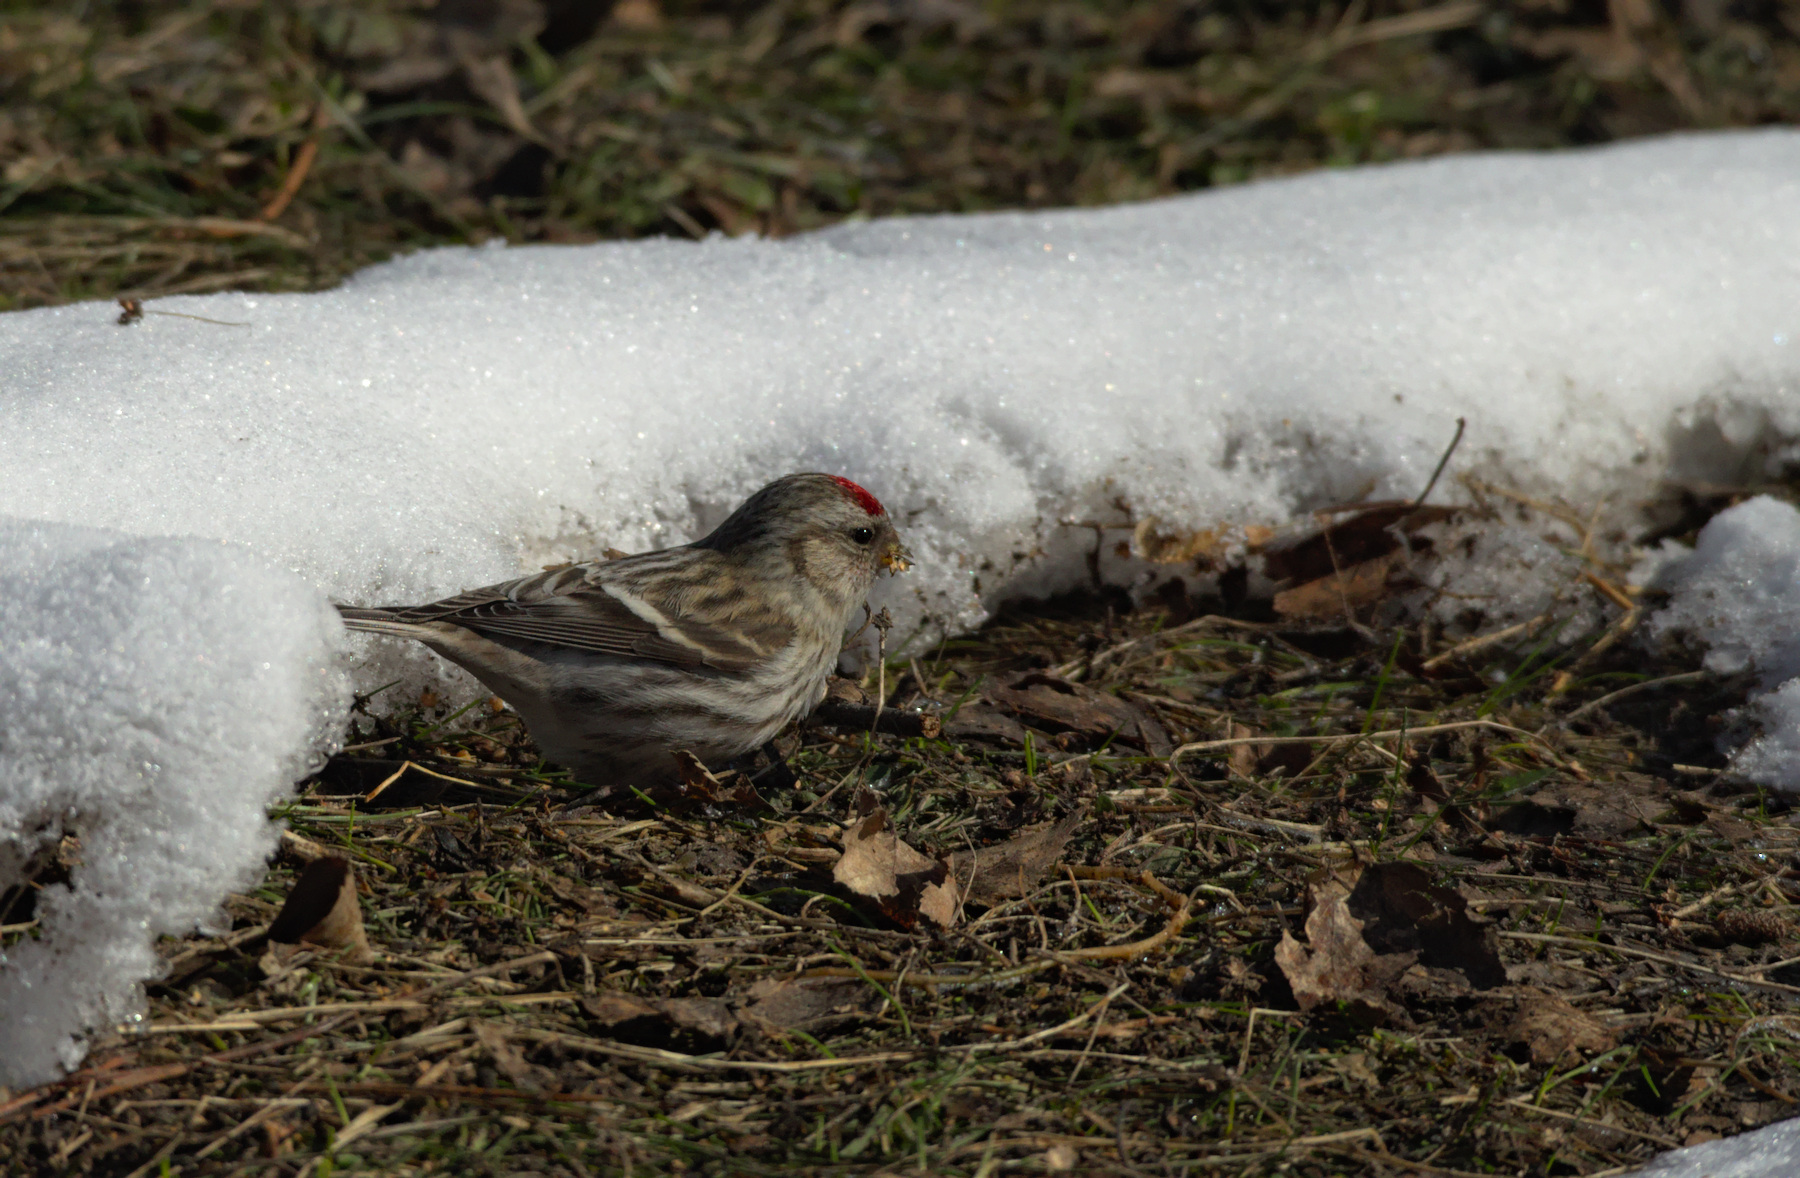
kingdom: Animalia
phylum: Chordata
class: Aves
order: Passeriformes
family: Fringillidae
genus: Acanthis
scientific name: Acanthis flammea
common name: Common redpoll
